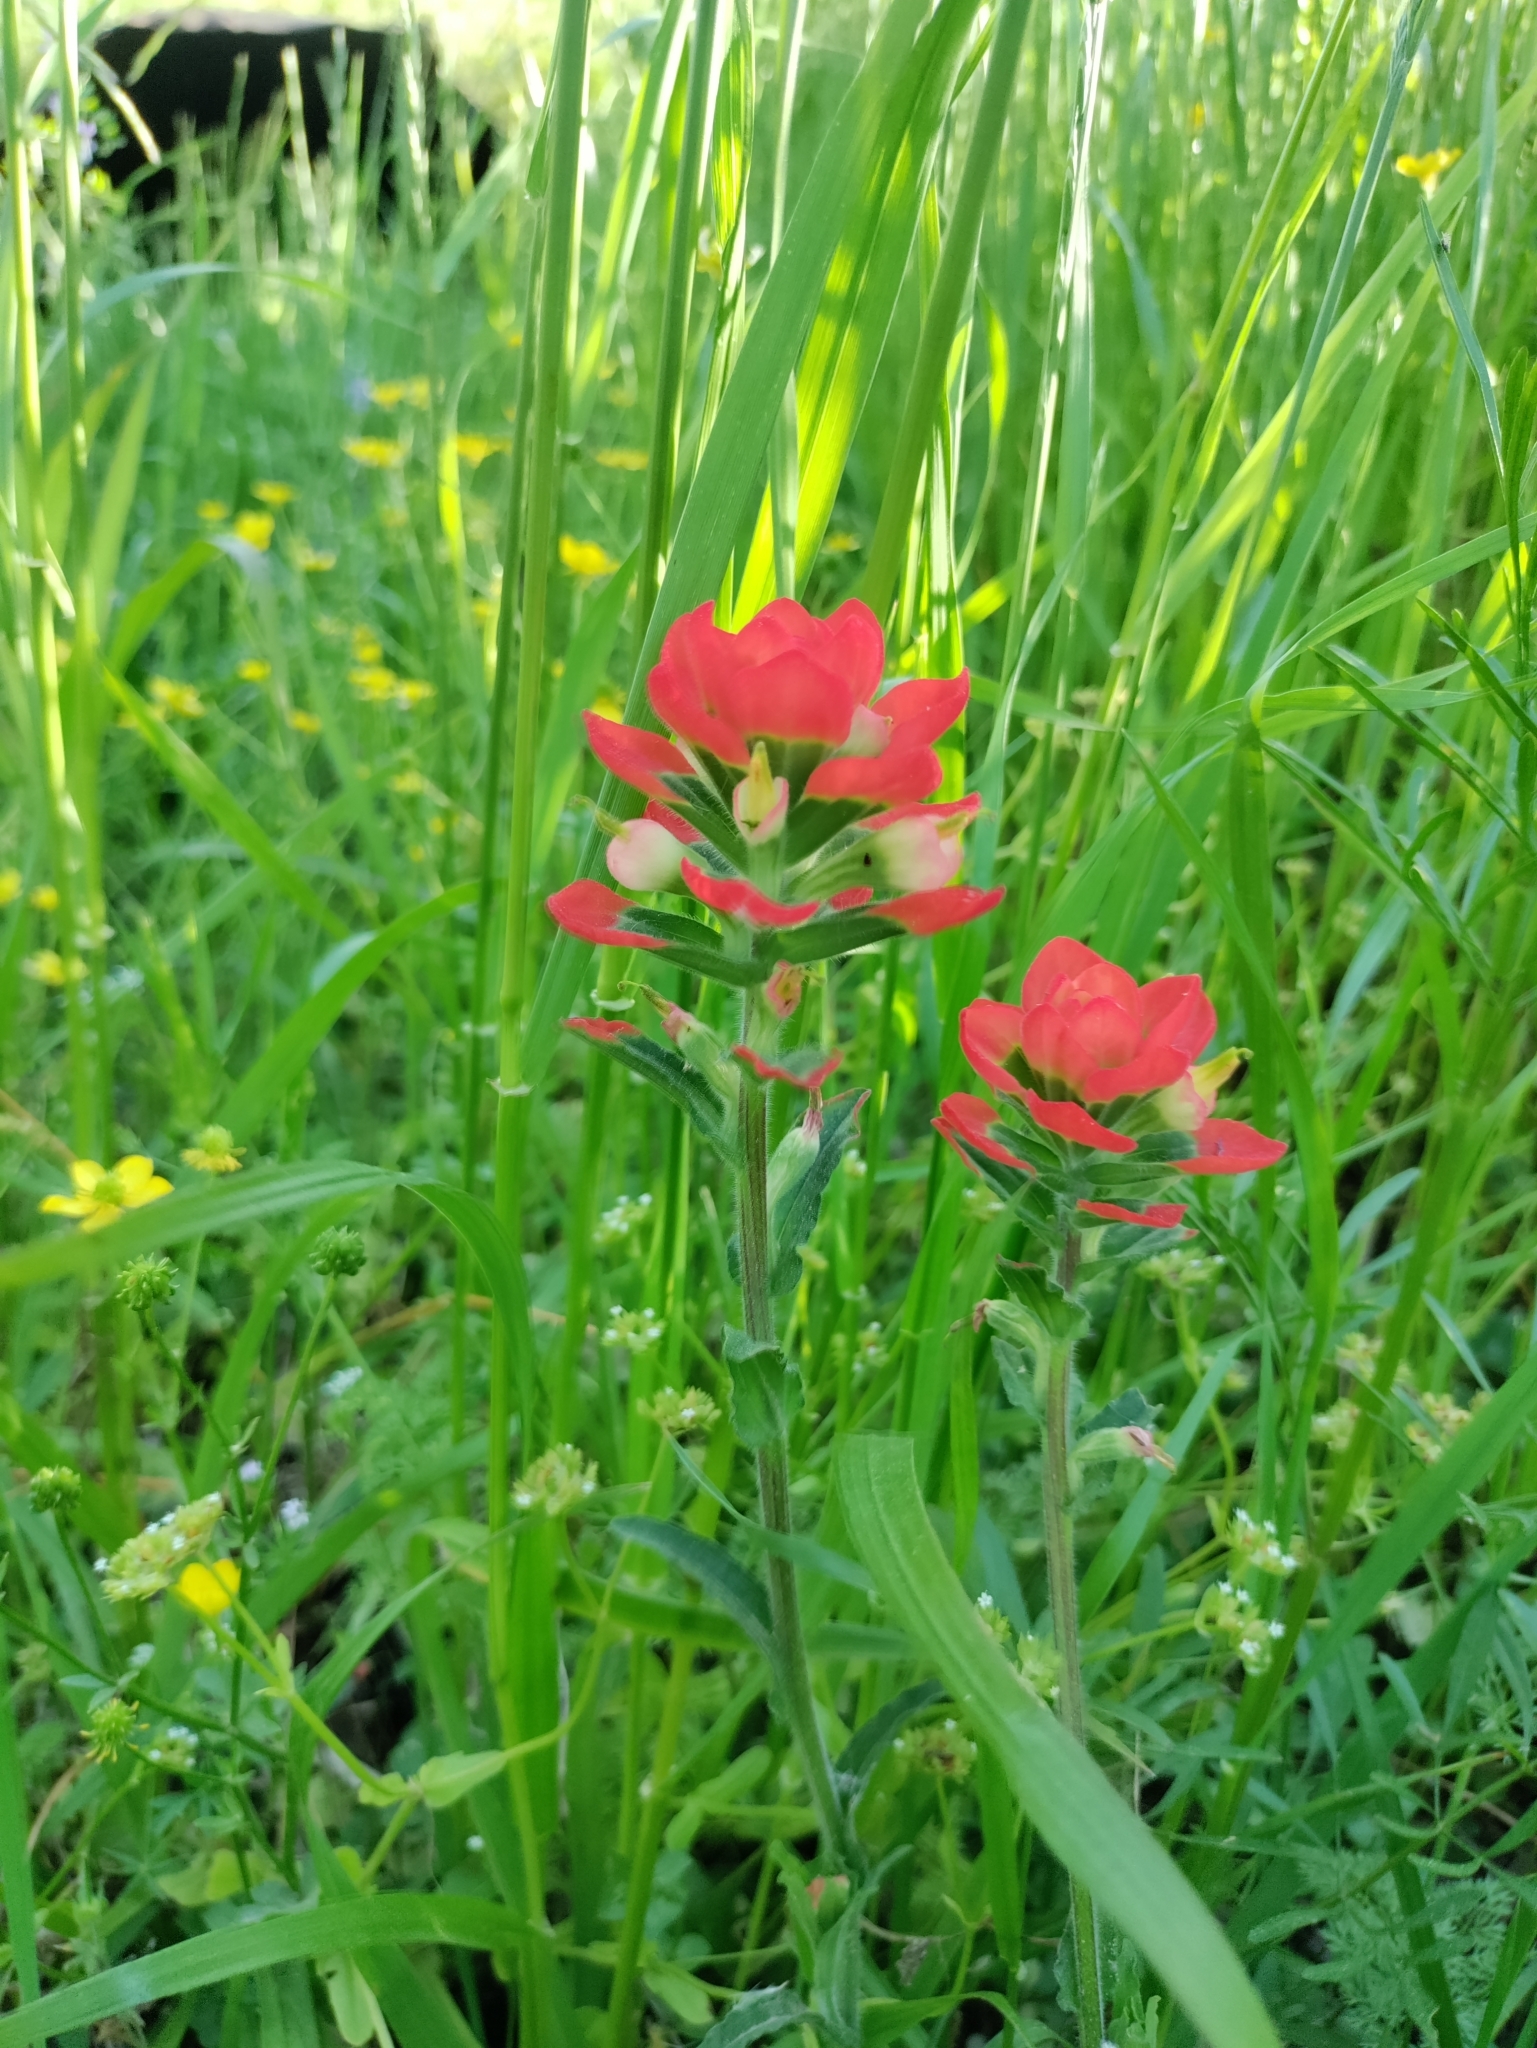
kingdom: Plantae
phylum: Tracheophyta
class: Magnoliopsida
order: Lamiales
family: Orobanchaceae
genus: Castilleja
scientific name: Castilleja indivisa
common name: Texas paintbrush
